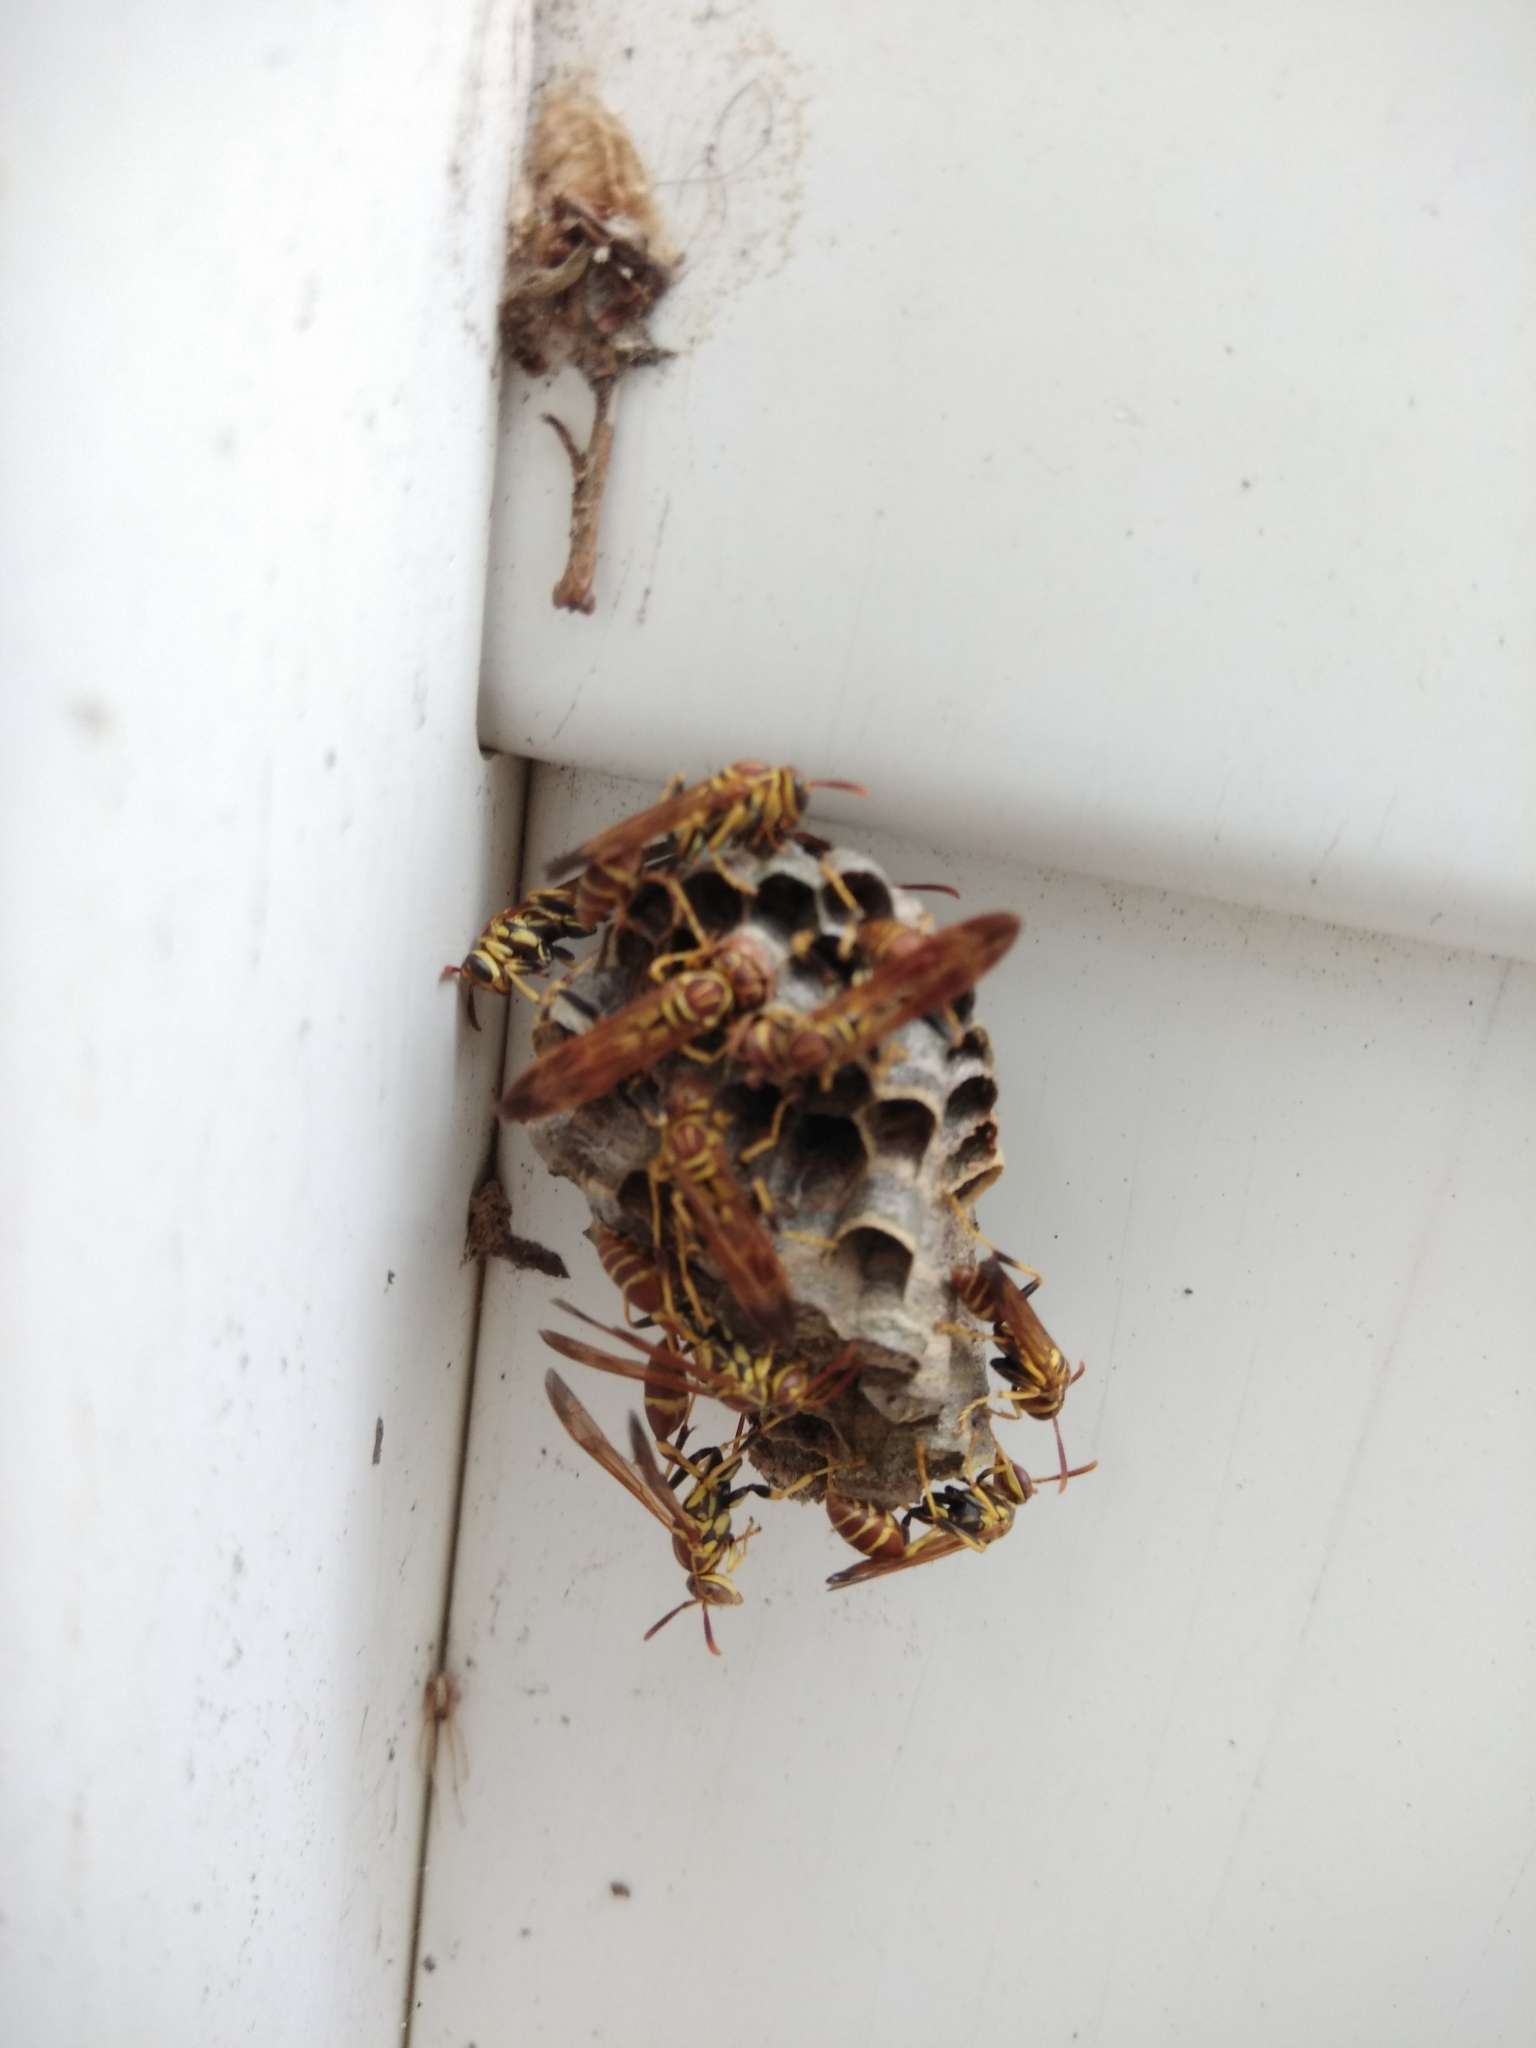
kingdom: Animalia
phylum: Arthropoda
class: Insecta
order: Hymenoptera
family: Vespidae
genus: Mischocyttarus
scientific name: Mischocyttarus mexicanus
